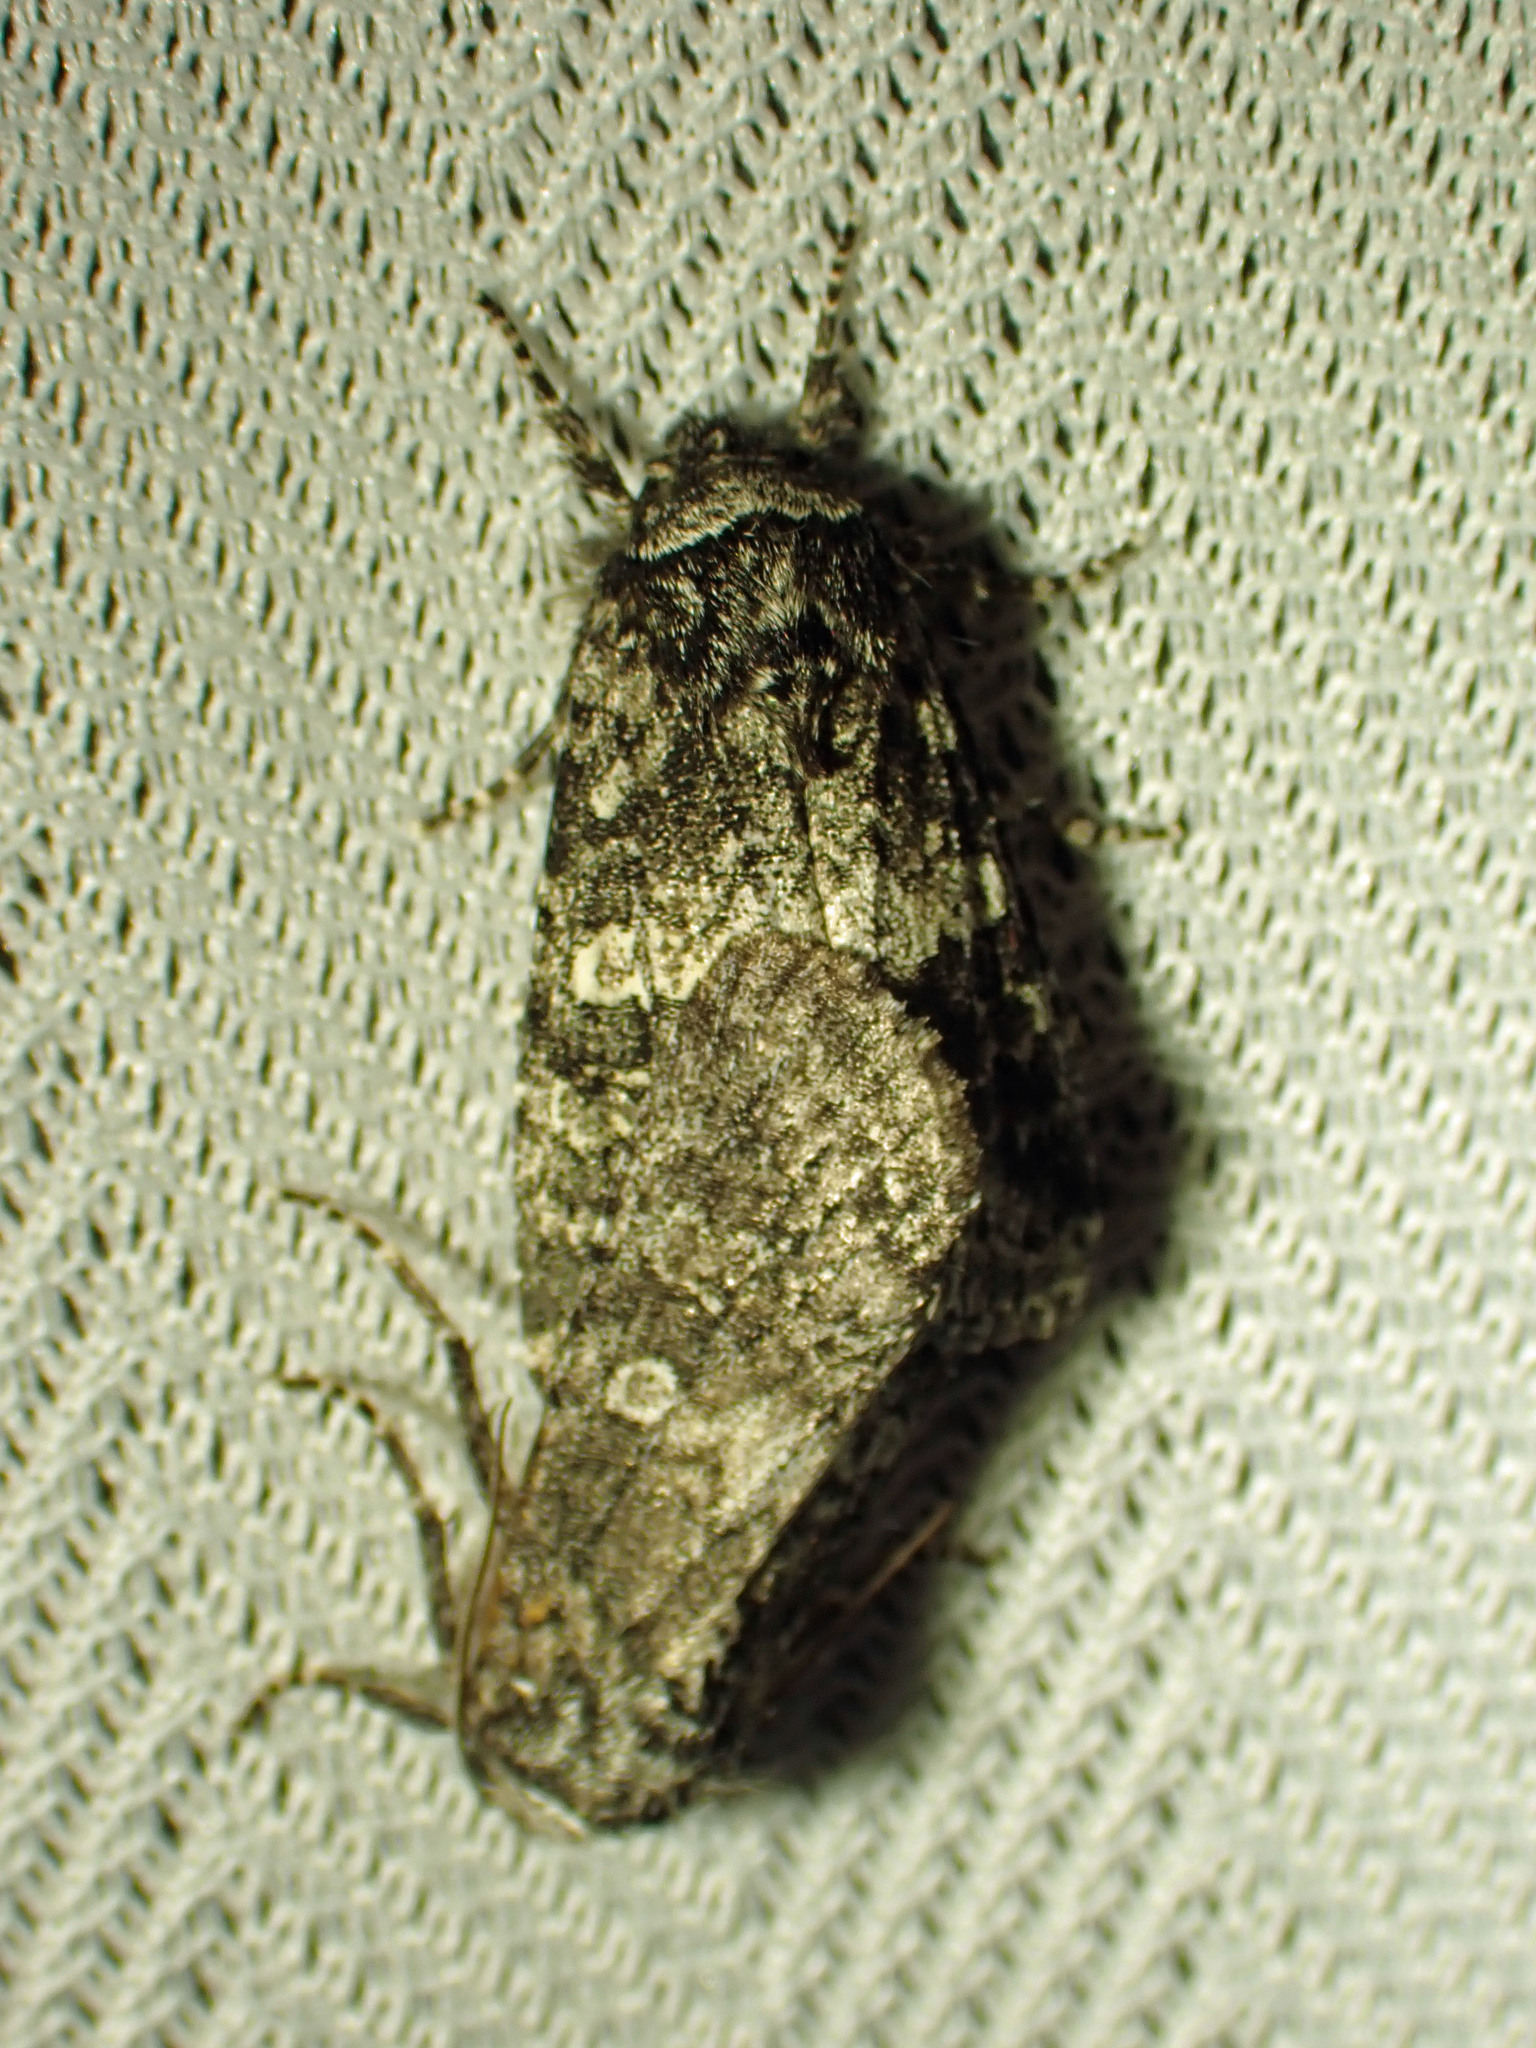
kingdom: Animalia
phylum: Arthropoda
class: Insecta
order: Lepidoptera
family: Noctuidae
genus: Egira
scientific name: Egira dolosa
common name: Lined black aspen cat.
